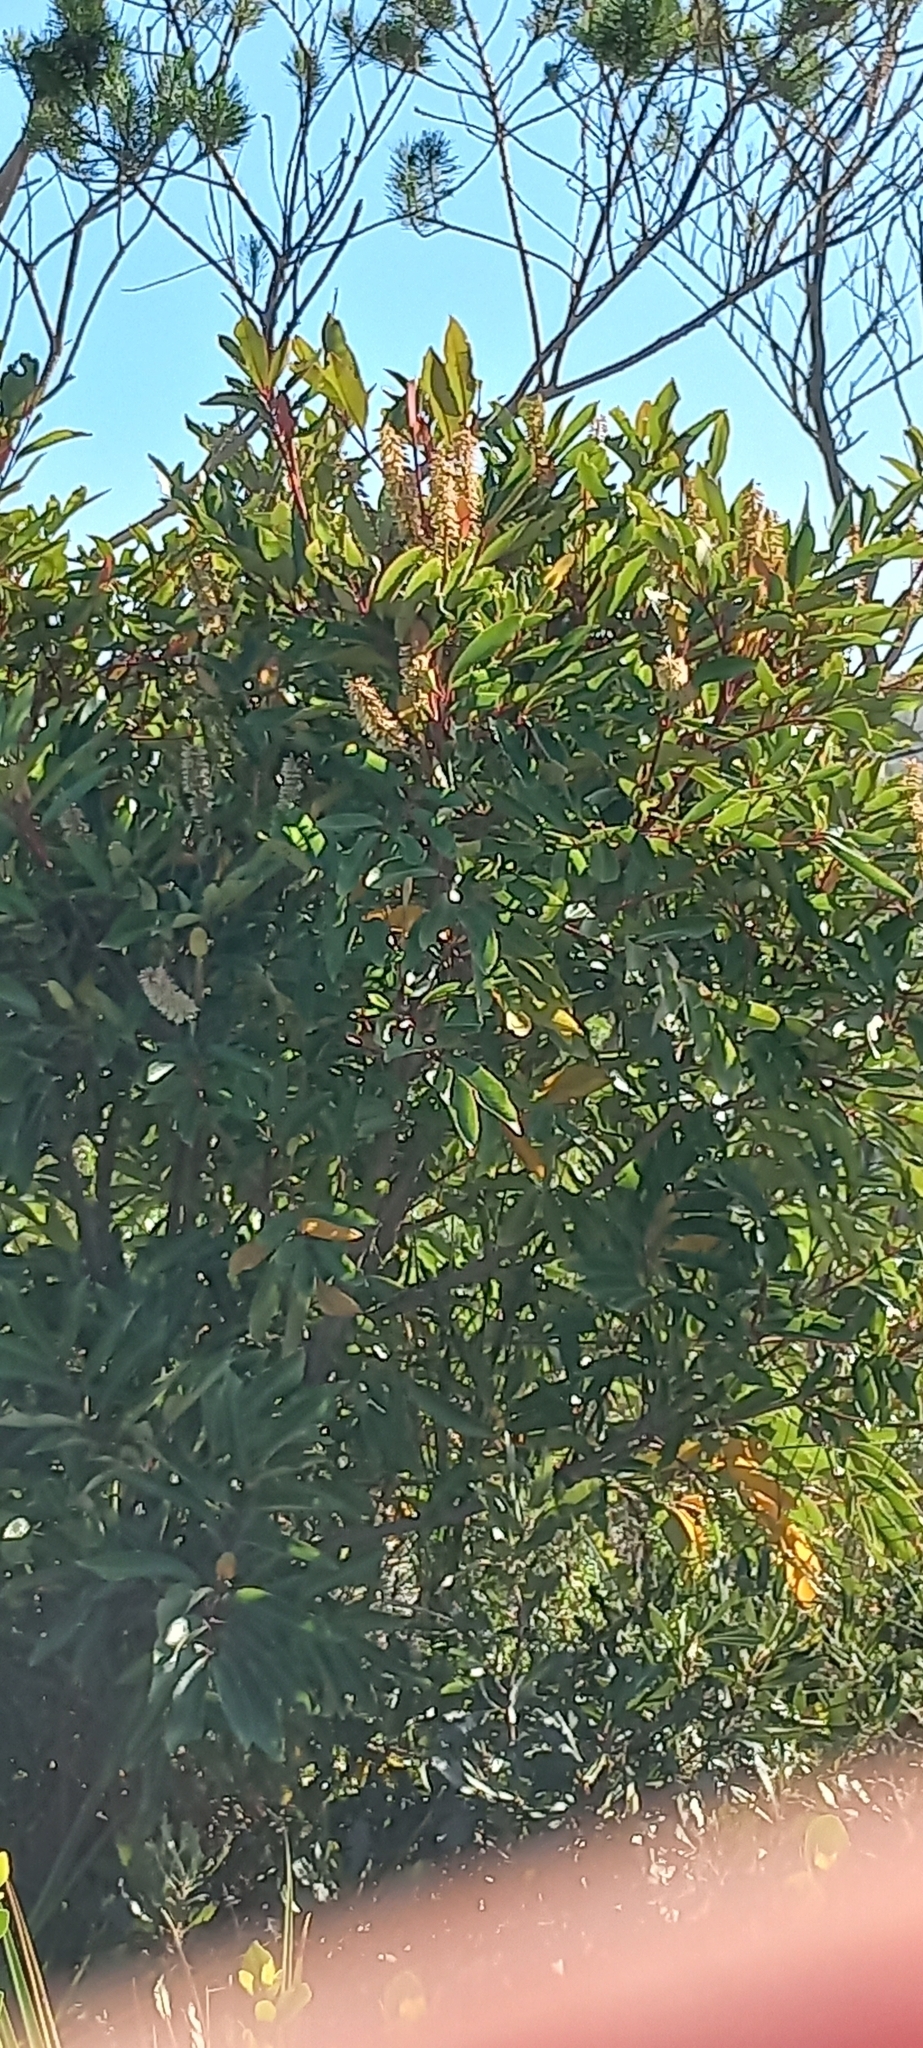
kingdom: Plantae
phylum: Tracheophyta
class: Magnoliopsida
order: Oxalidales
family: Cunoniaceae
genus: Cunonia
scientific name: Cunonia capensis
